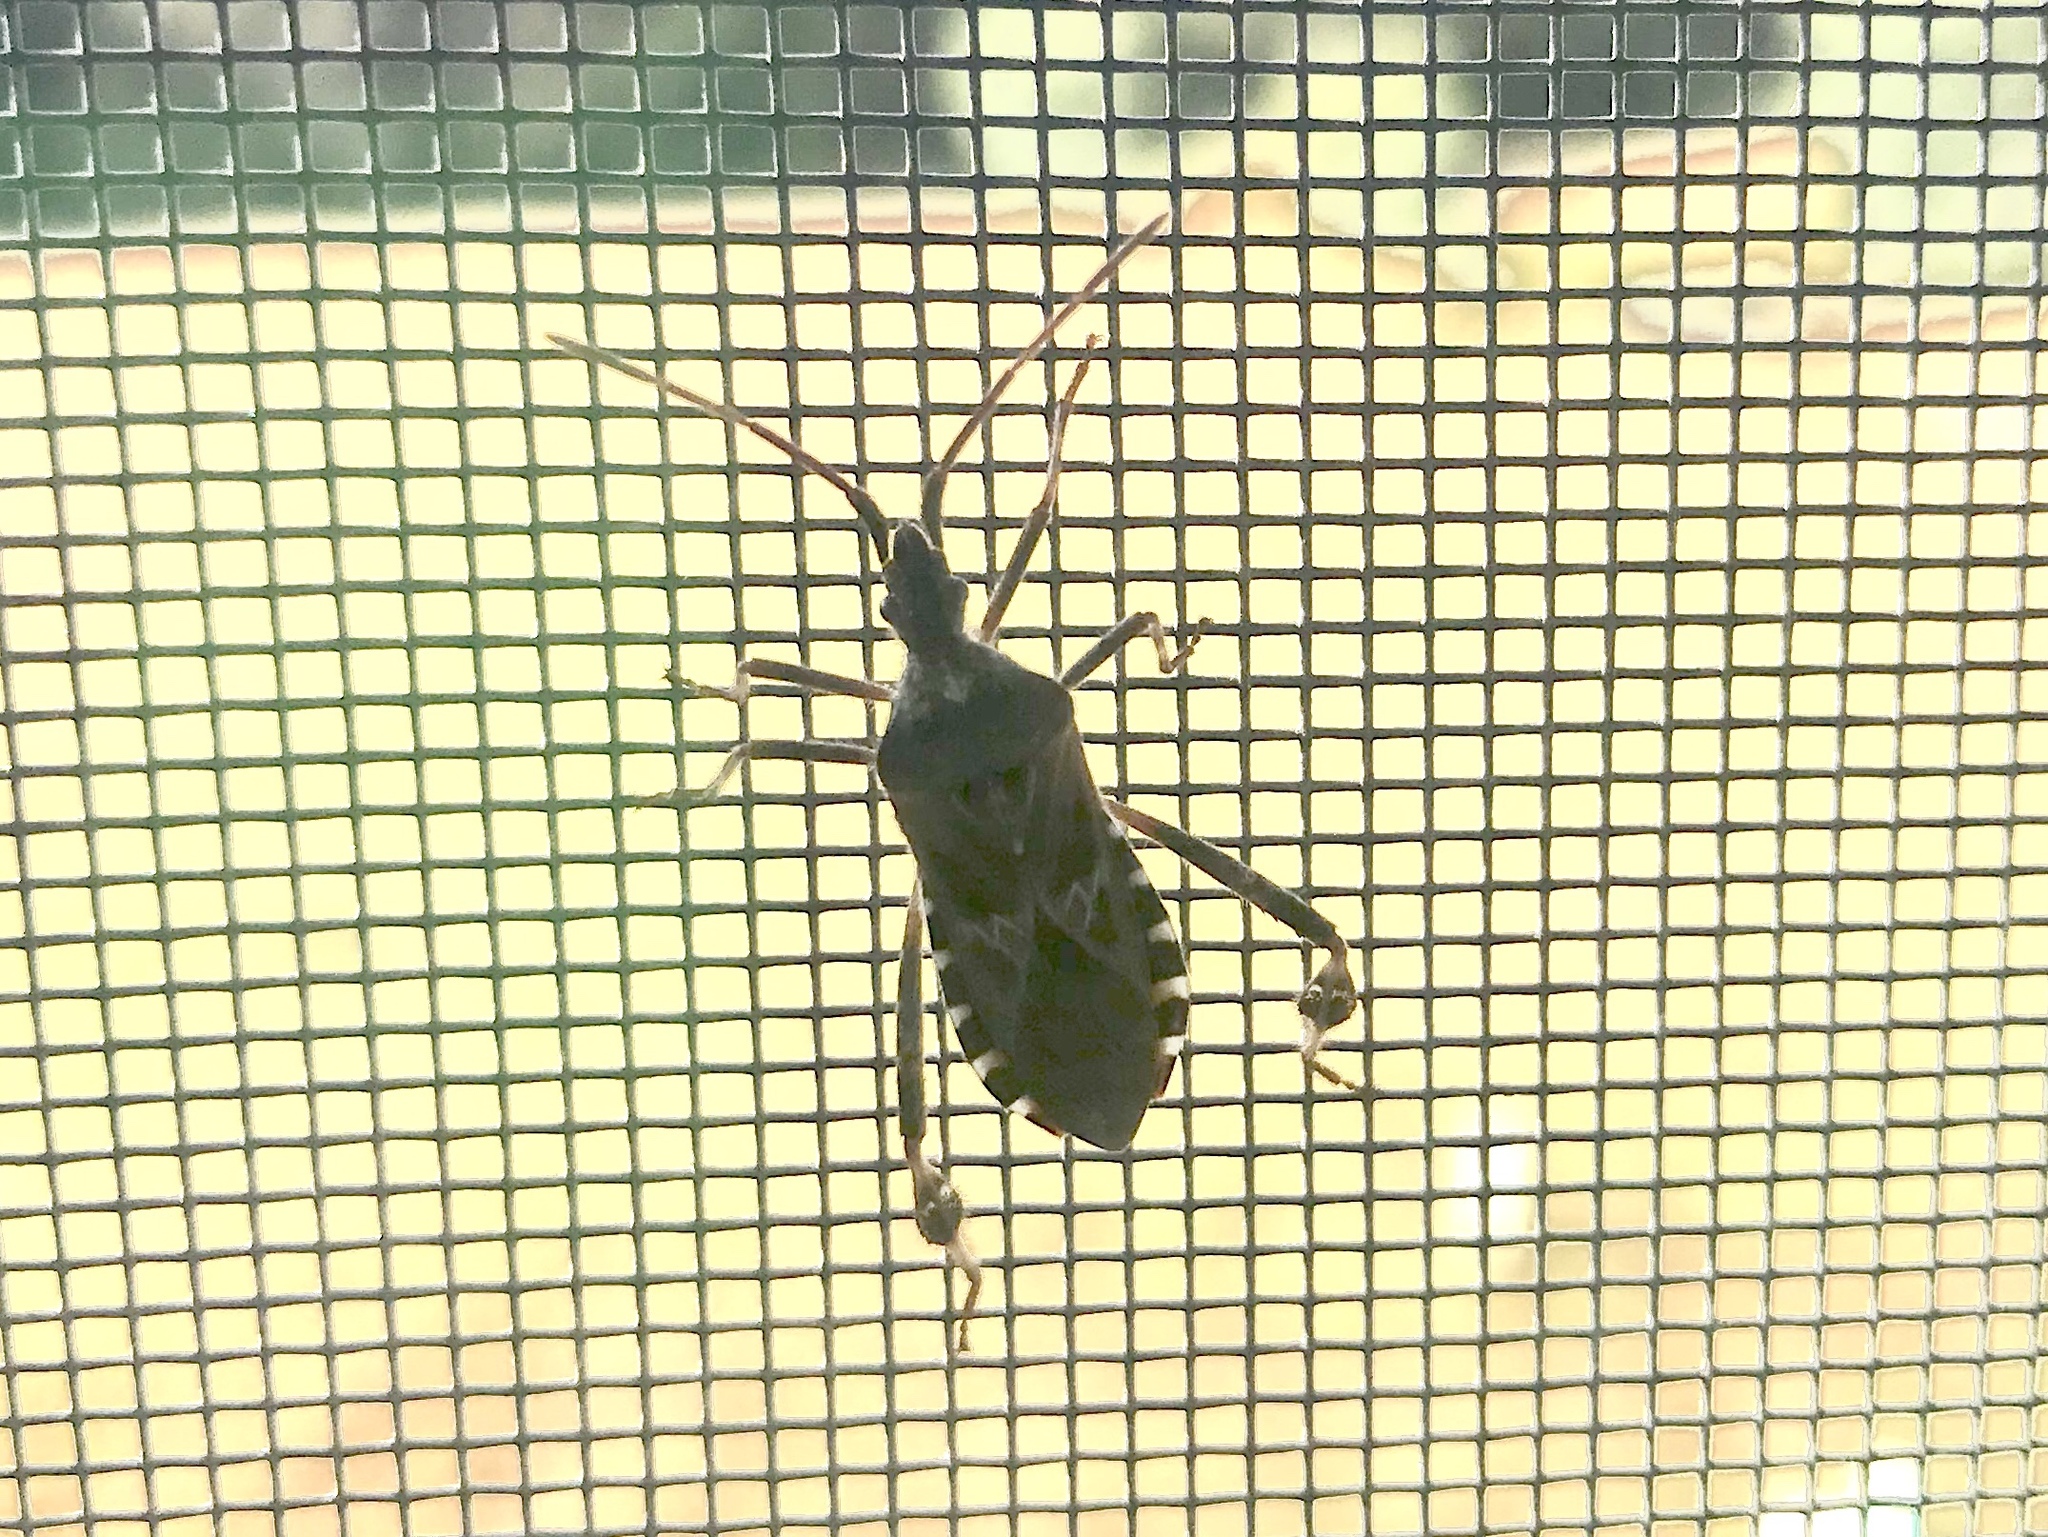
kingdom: Animalia
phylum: Arthropoda
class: Insecta
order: Hemiptera
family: Coreidae
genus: Leptoglossus
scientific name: Leptoglossus occidentalis
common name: Western conifer-seed bug
